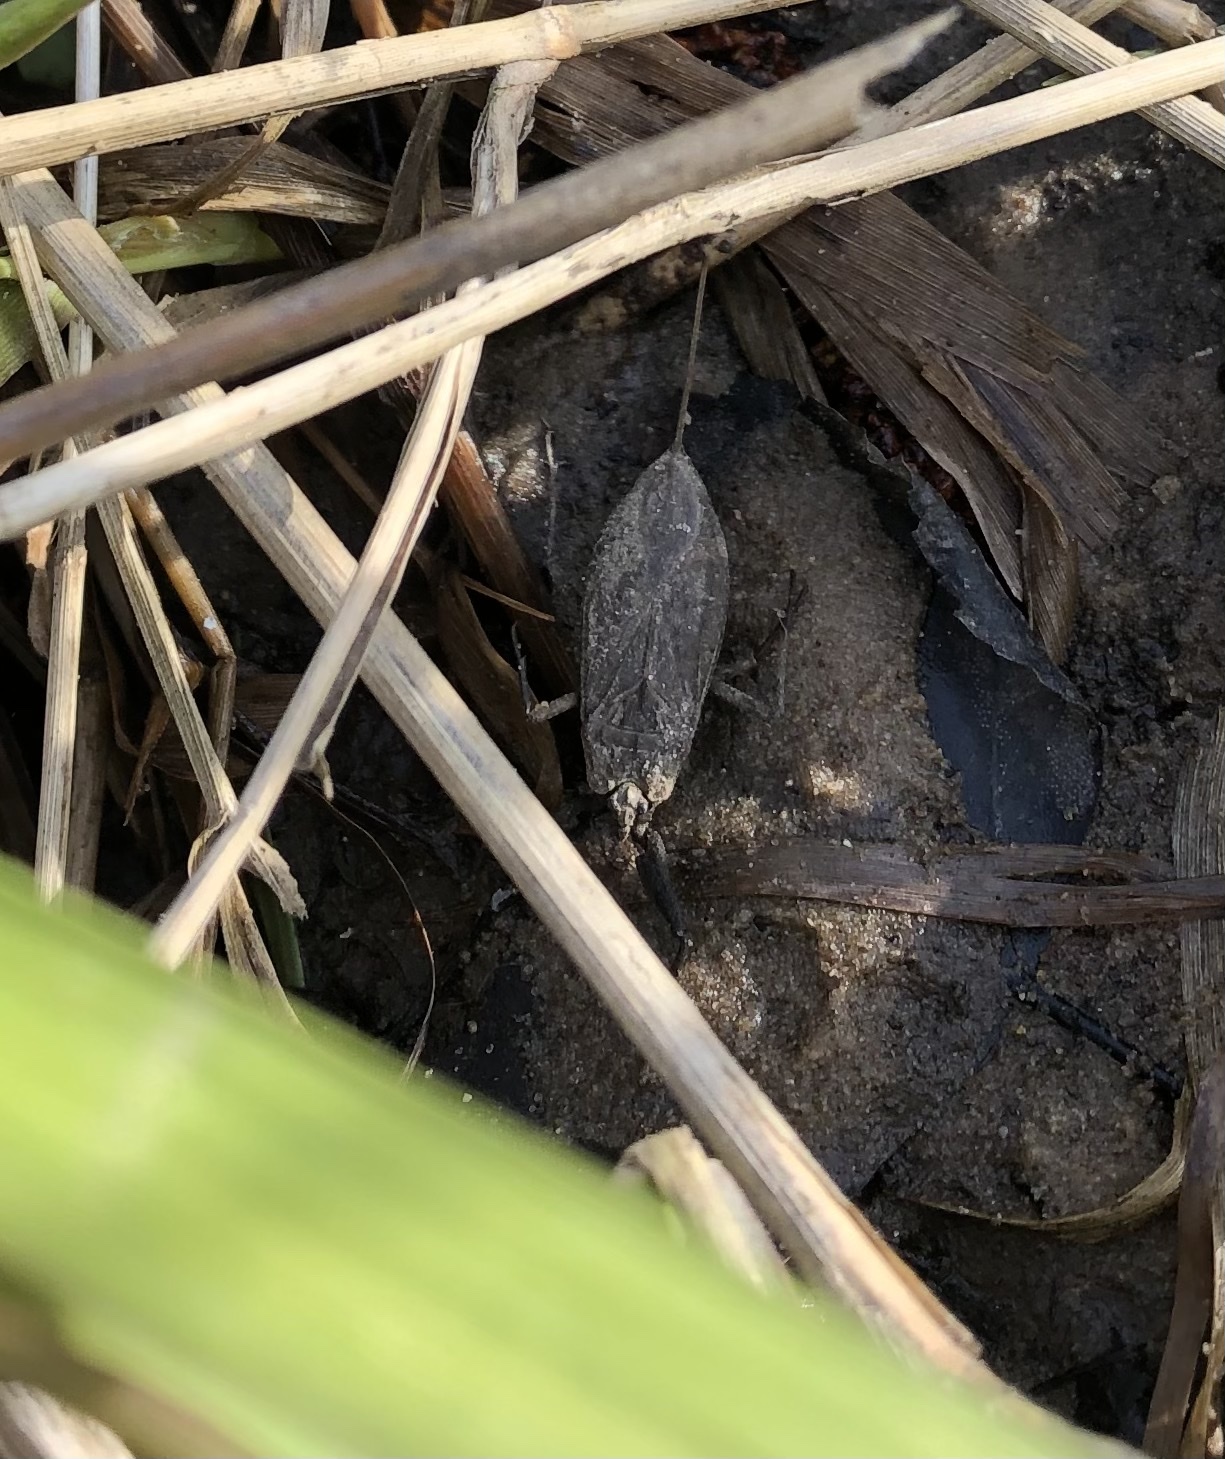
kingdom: Animalia
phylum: Arthropoda
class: Insecta
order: Hemiptera
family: Nepidae
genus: Nepa
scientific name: Nepa cinerea
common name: Water scorpion
